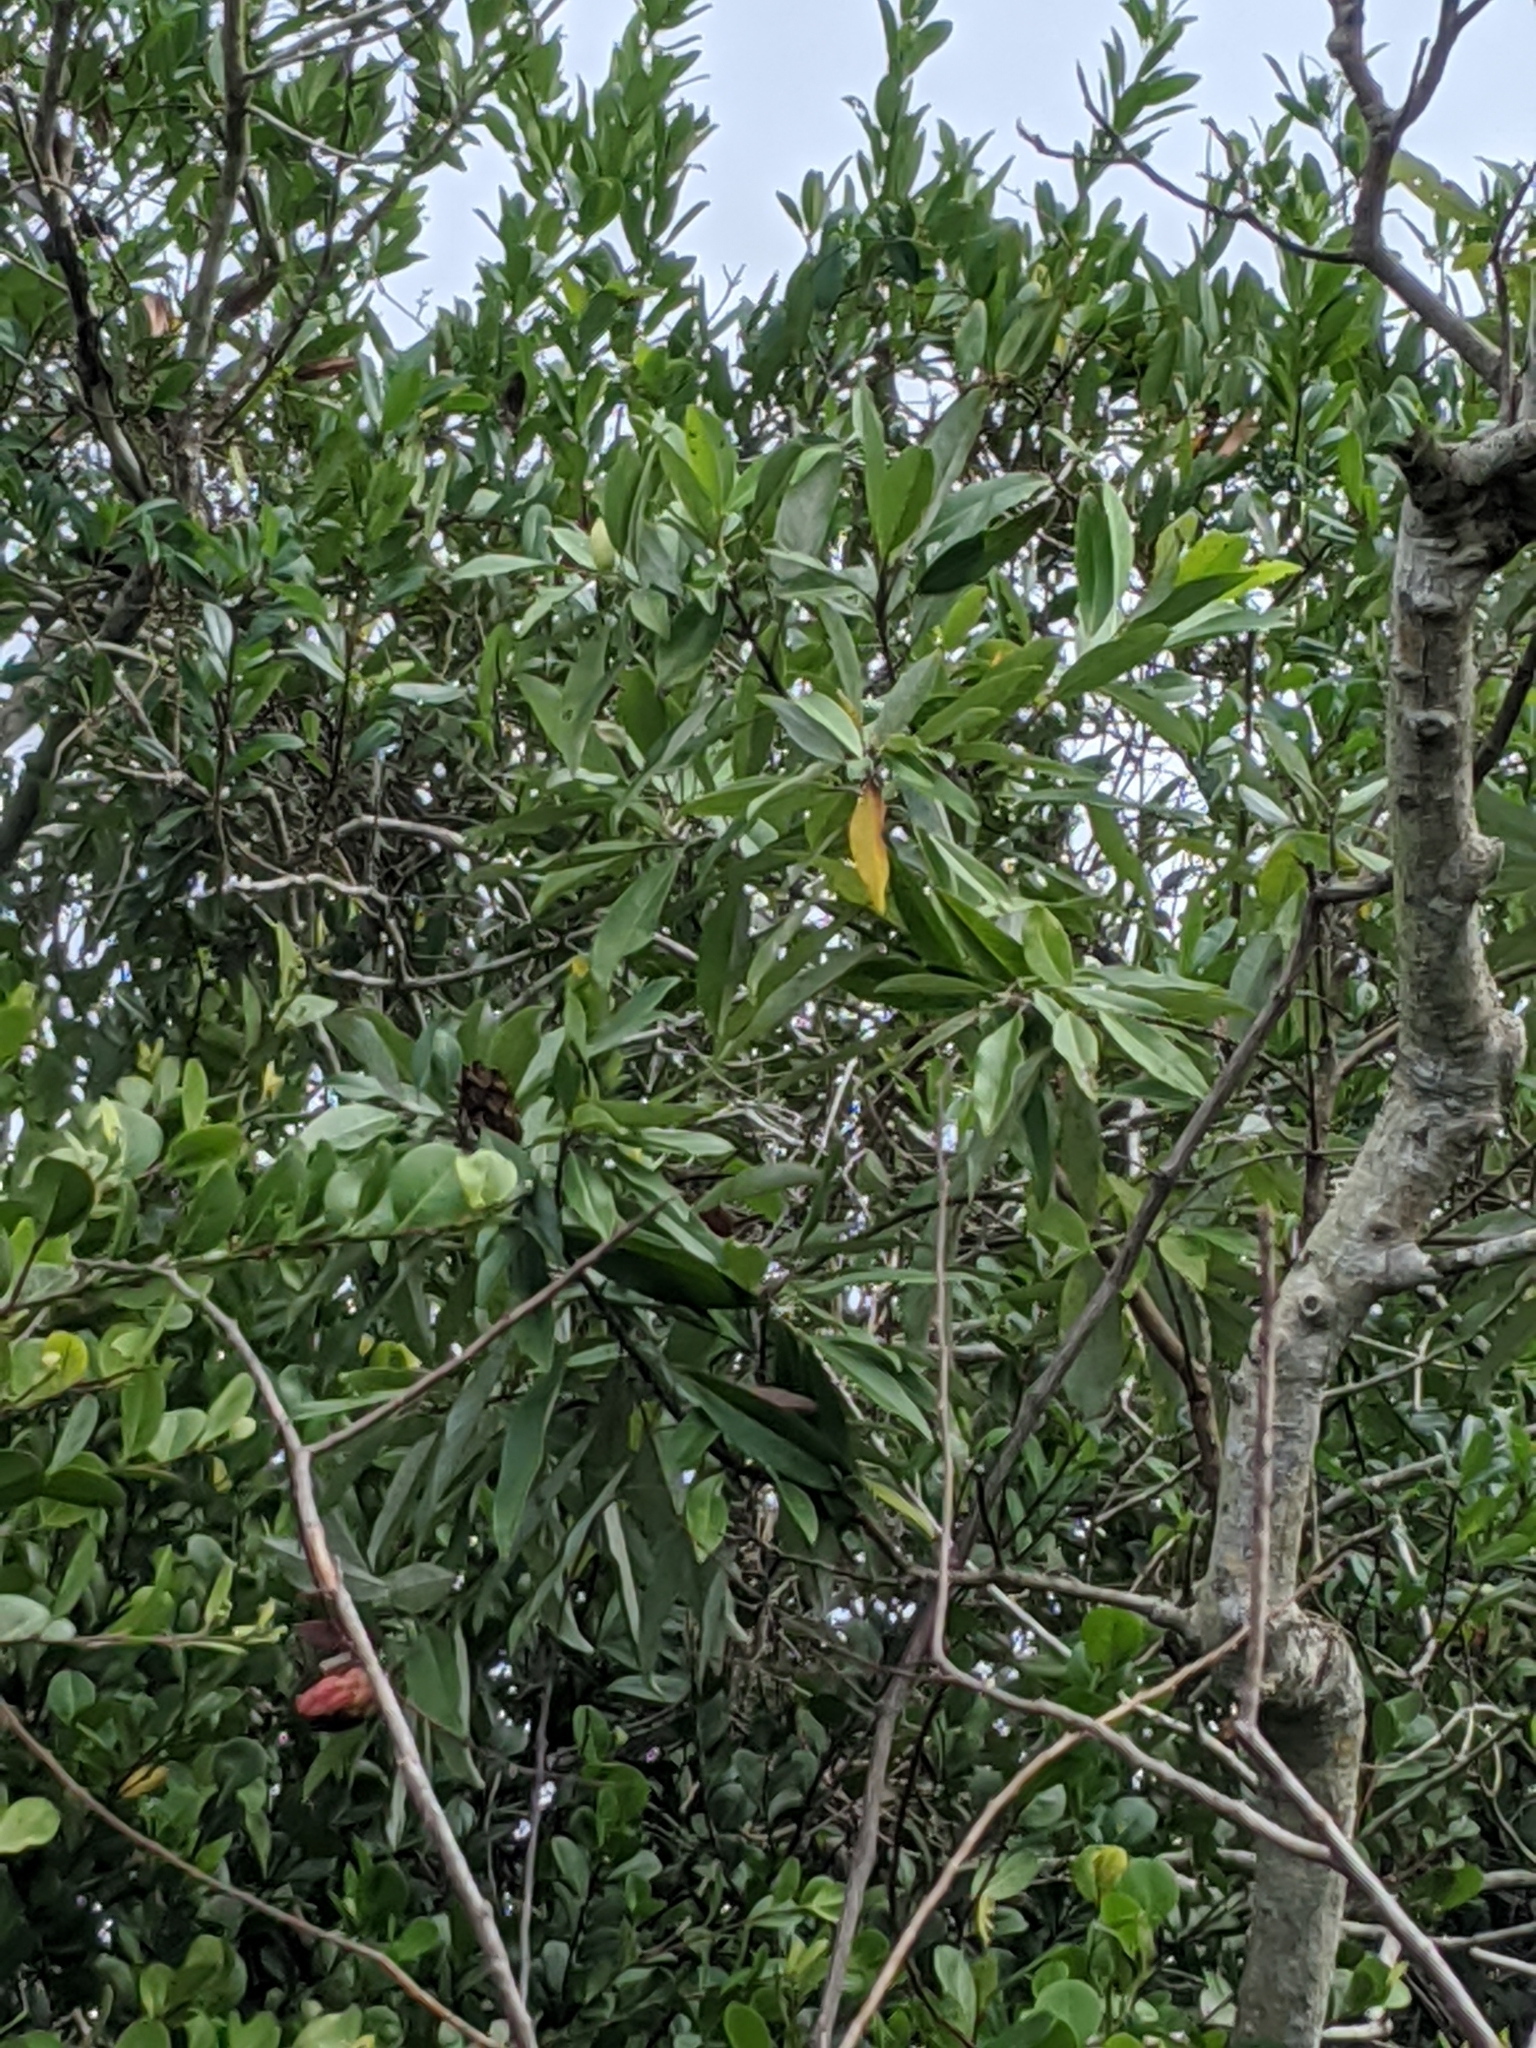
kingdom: Plantae
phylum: Tracheophyta
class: Magnoliopsida
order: Magnoliales
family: Magnoliaceae
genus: Magnolia
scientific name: Magnolia virginiana
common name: Swamp bay
